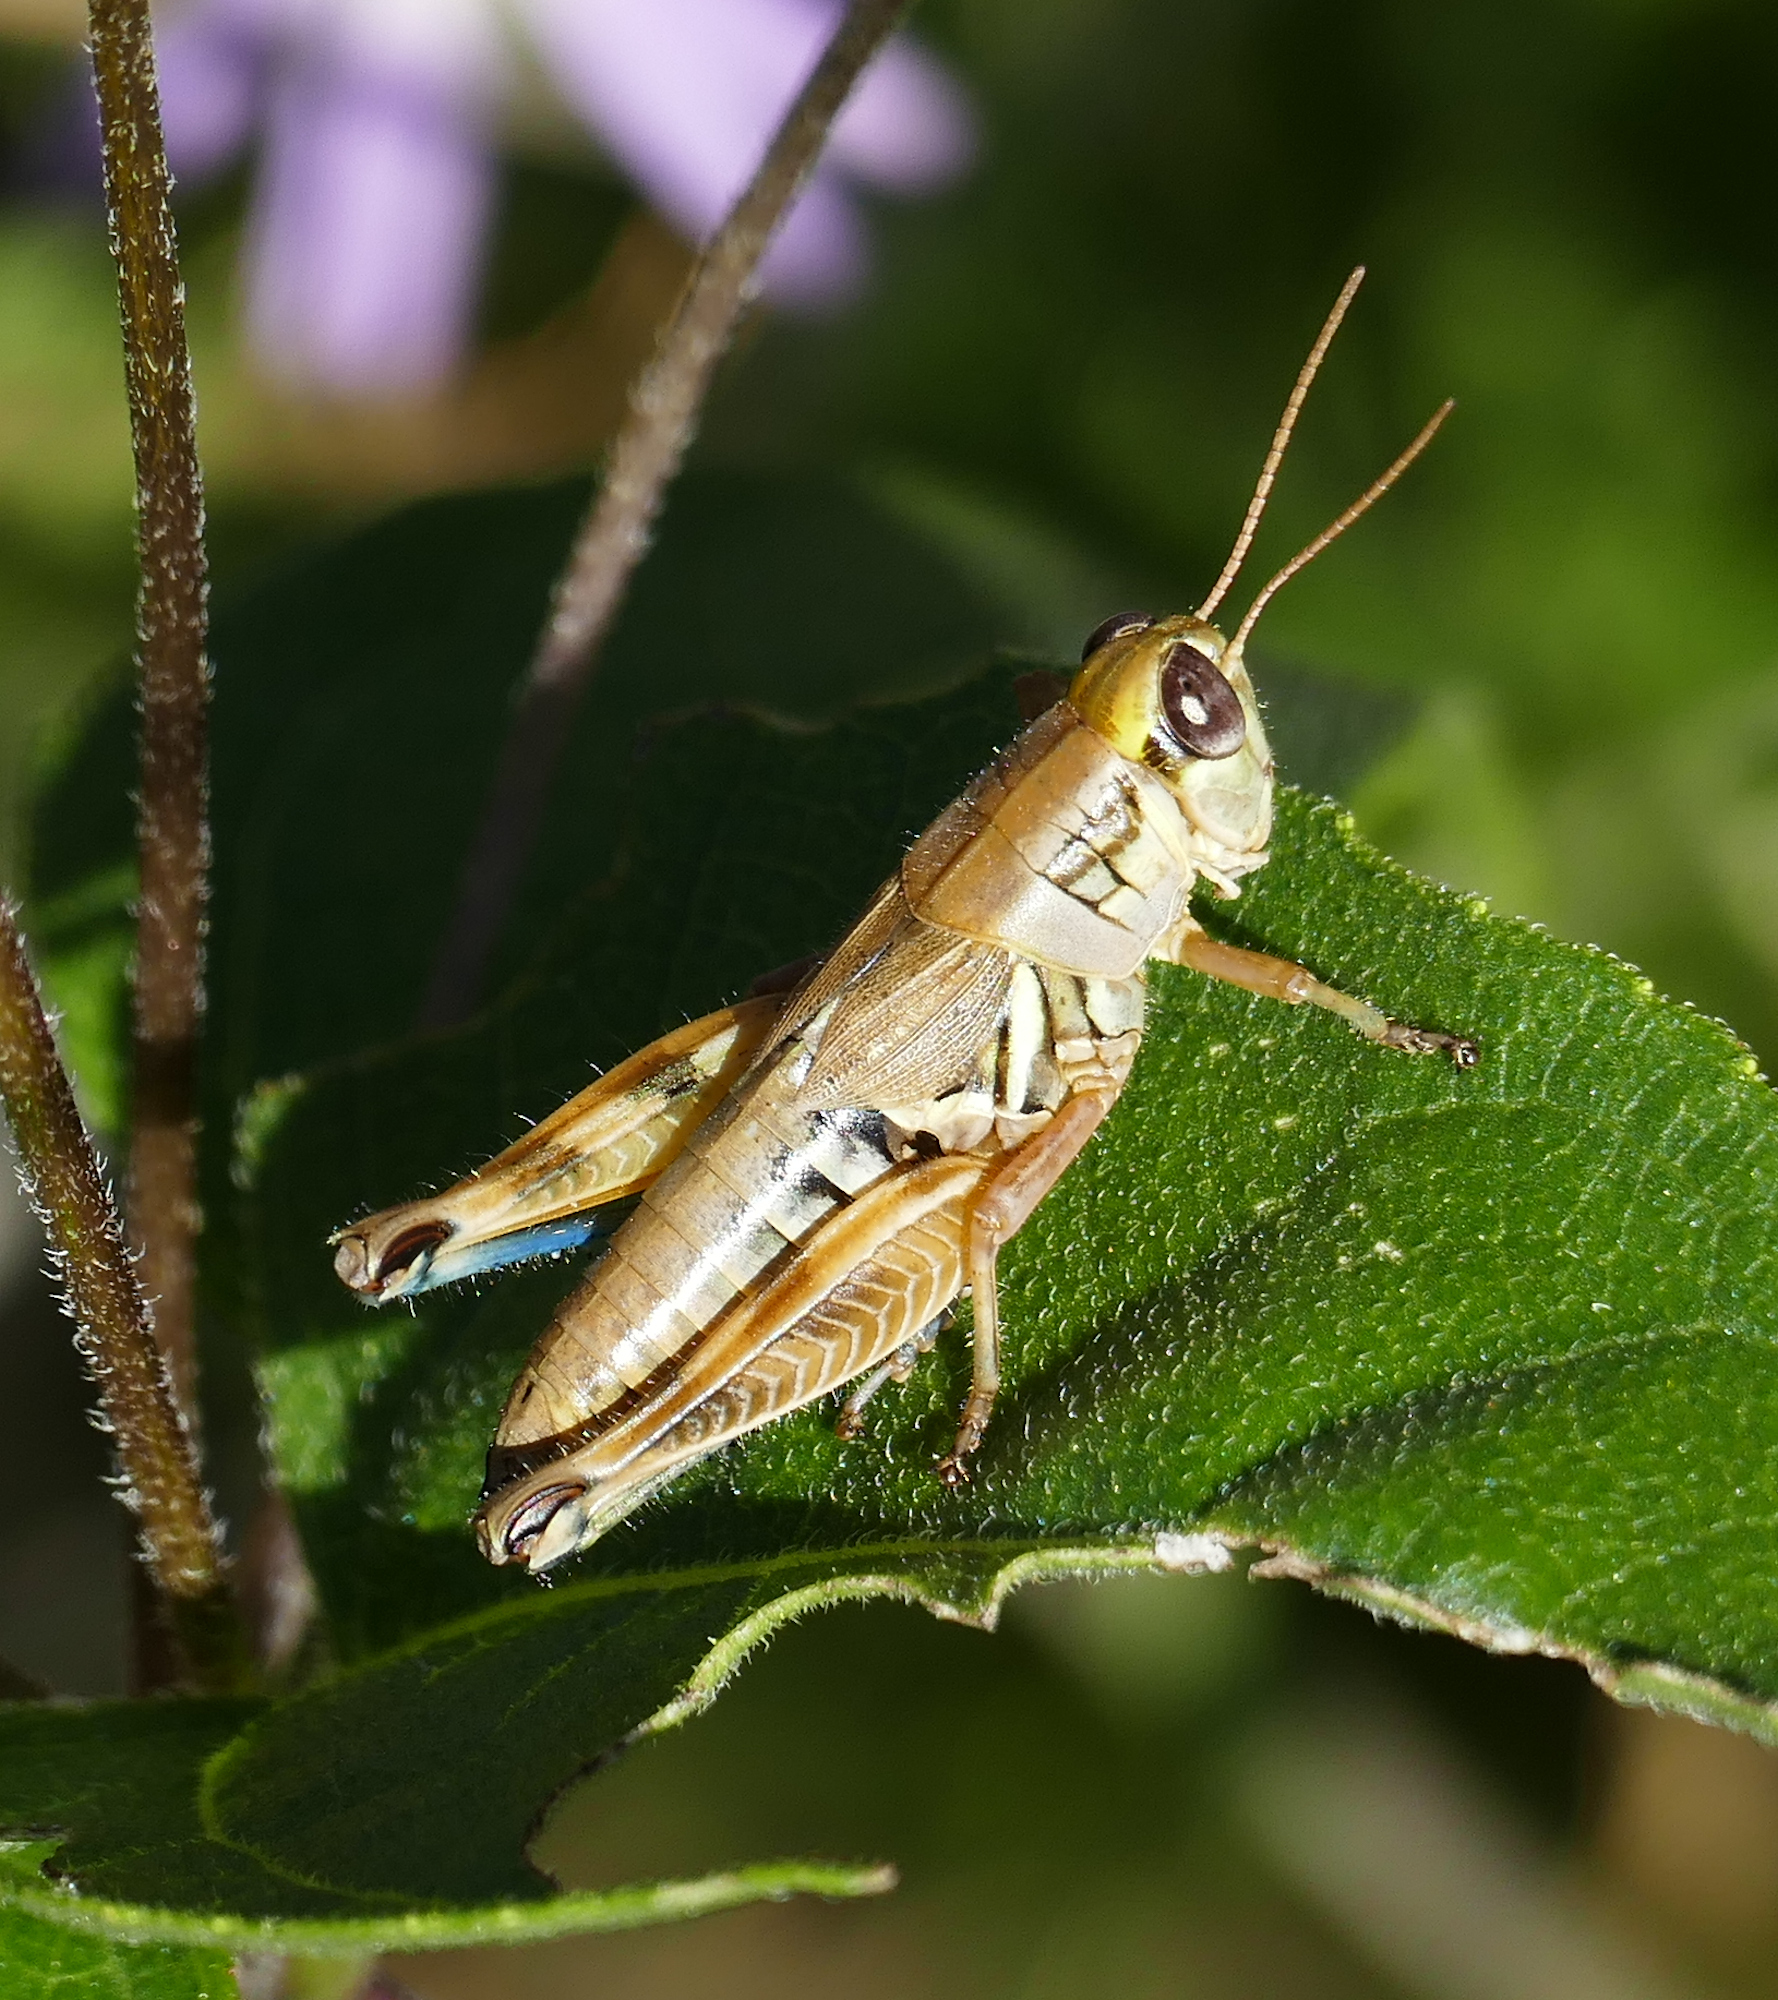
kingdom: Animalia
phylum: Arthropoda
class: Insecta
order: Orthoptera
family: Acrididae
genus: Melanoplus
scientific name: Melanoplus lakinus
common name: Lakin grasshopper
